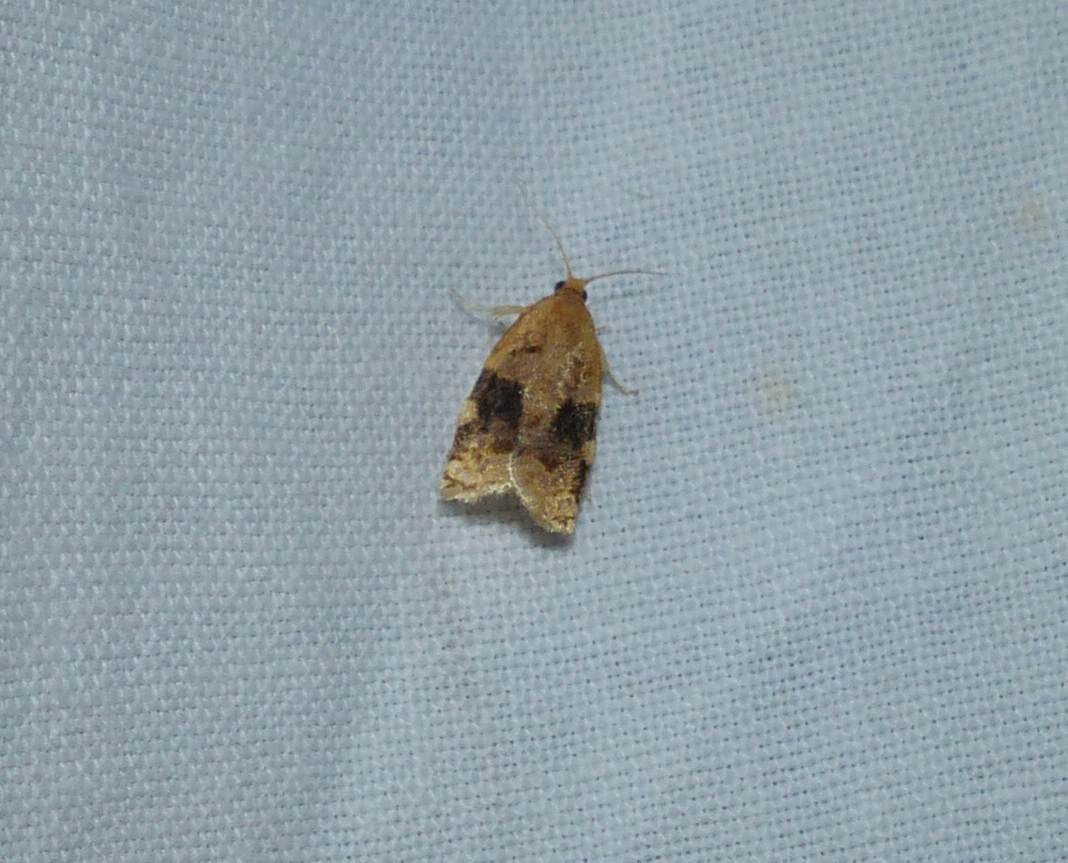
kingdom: Animalia
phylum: Arthropoda
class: Insecta
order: Lepidoptera
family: Tortricidae
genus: Archips
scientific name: Archips nigriplagana
